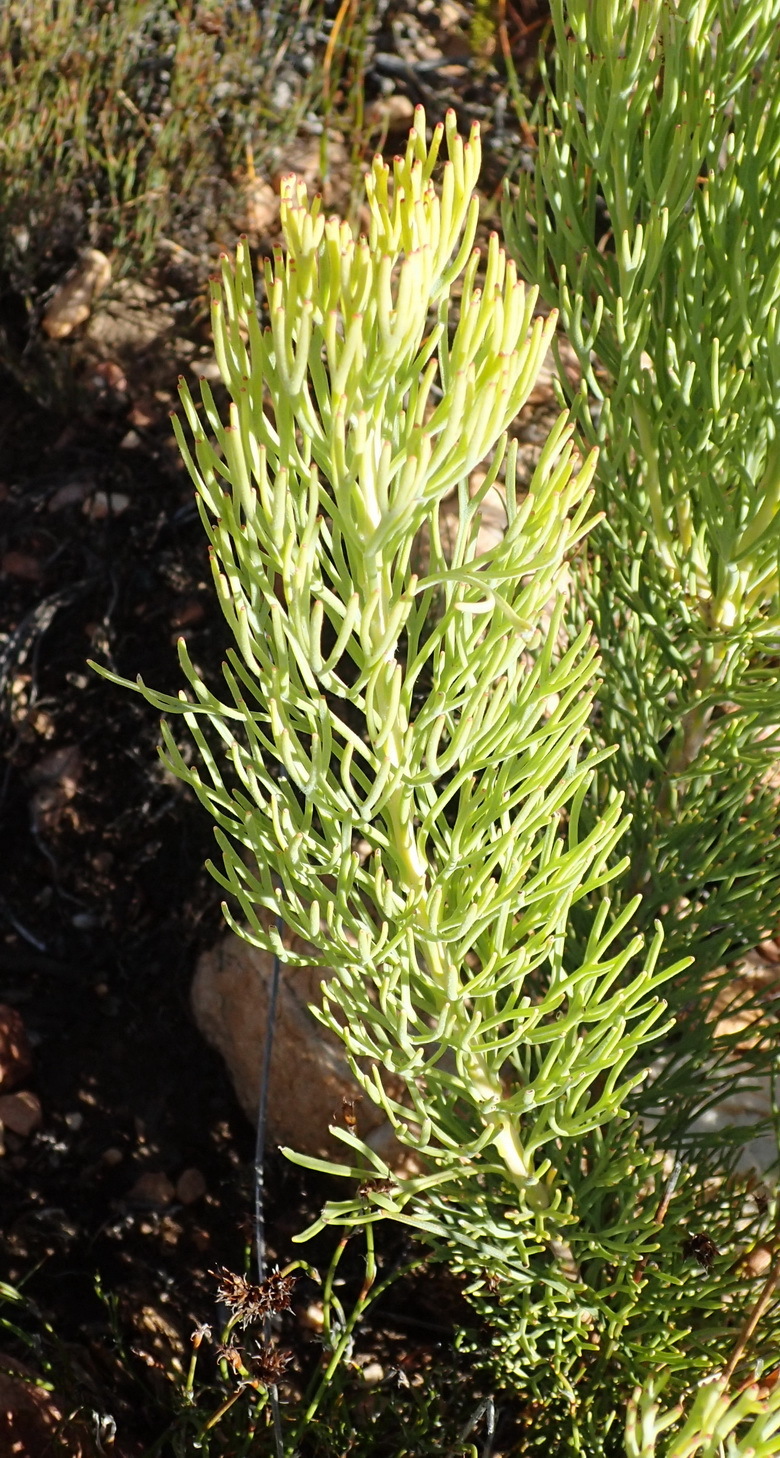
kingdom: Plantae
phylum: Tracheophyta
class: Magnoliopsida
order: Proteales
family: Proteaceae
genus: Paranomus
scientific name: Paranomus dregei
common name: Scented sceptre
